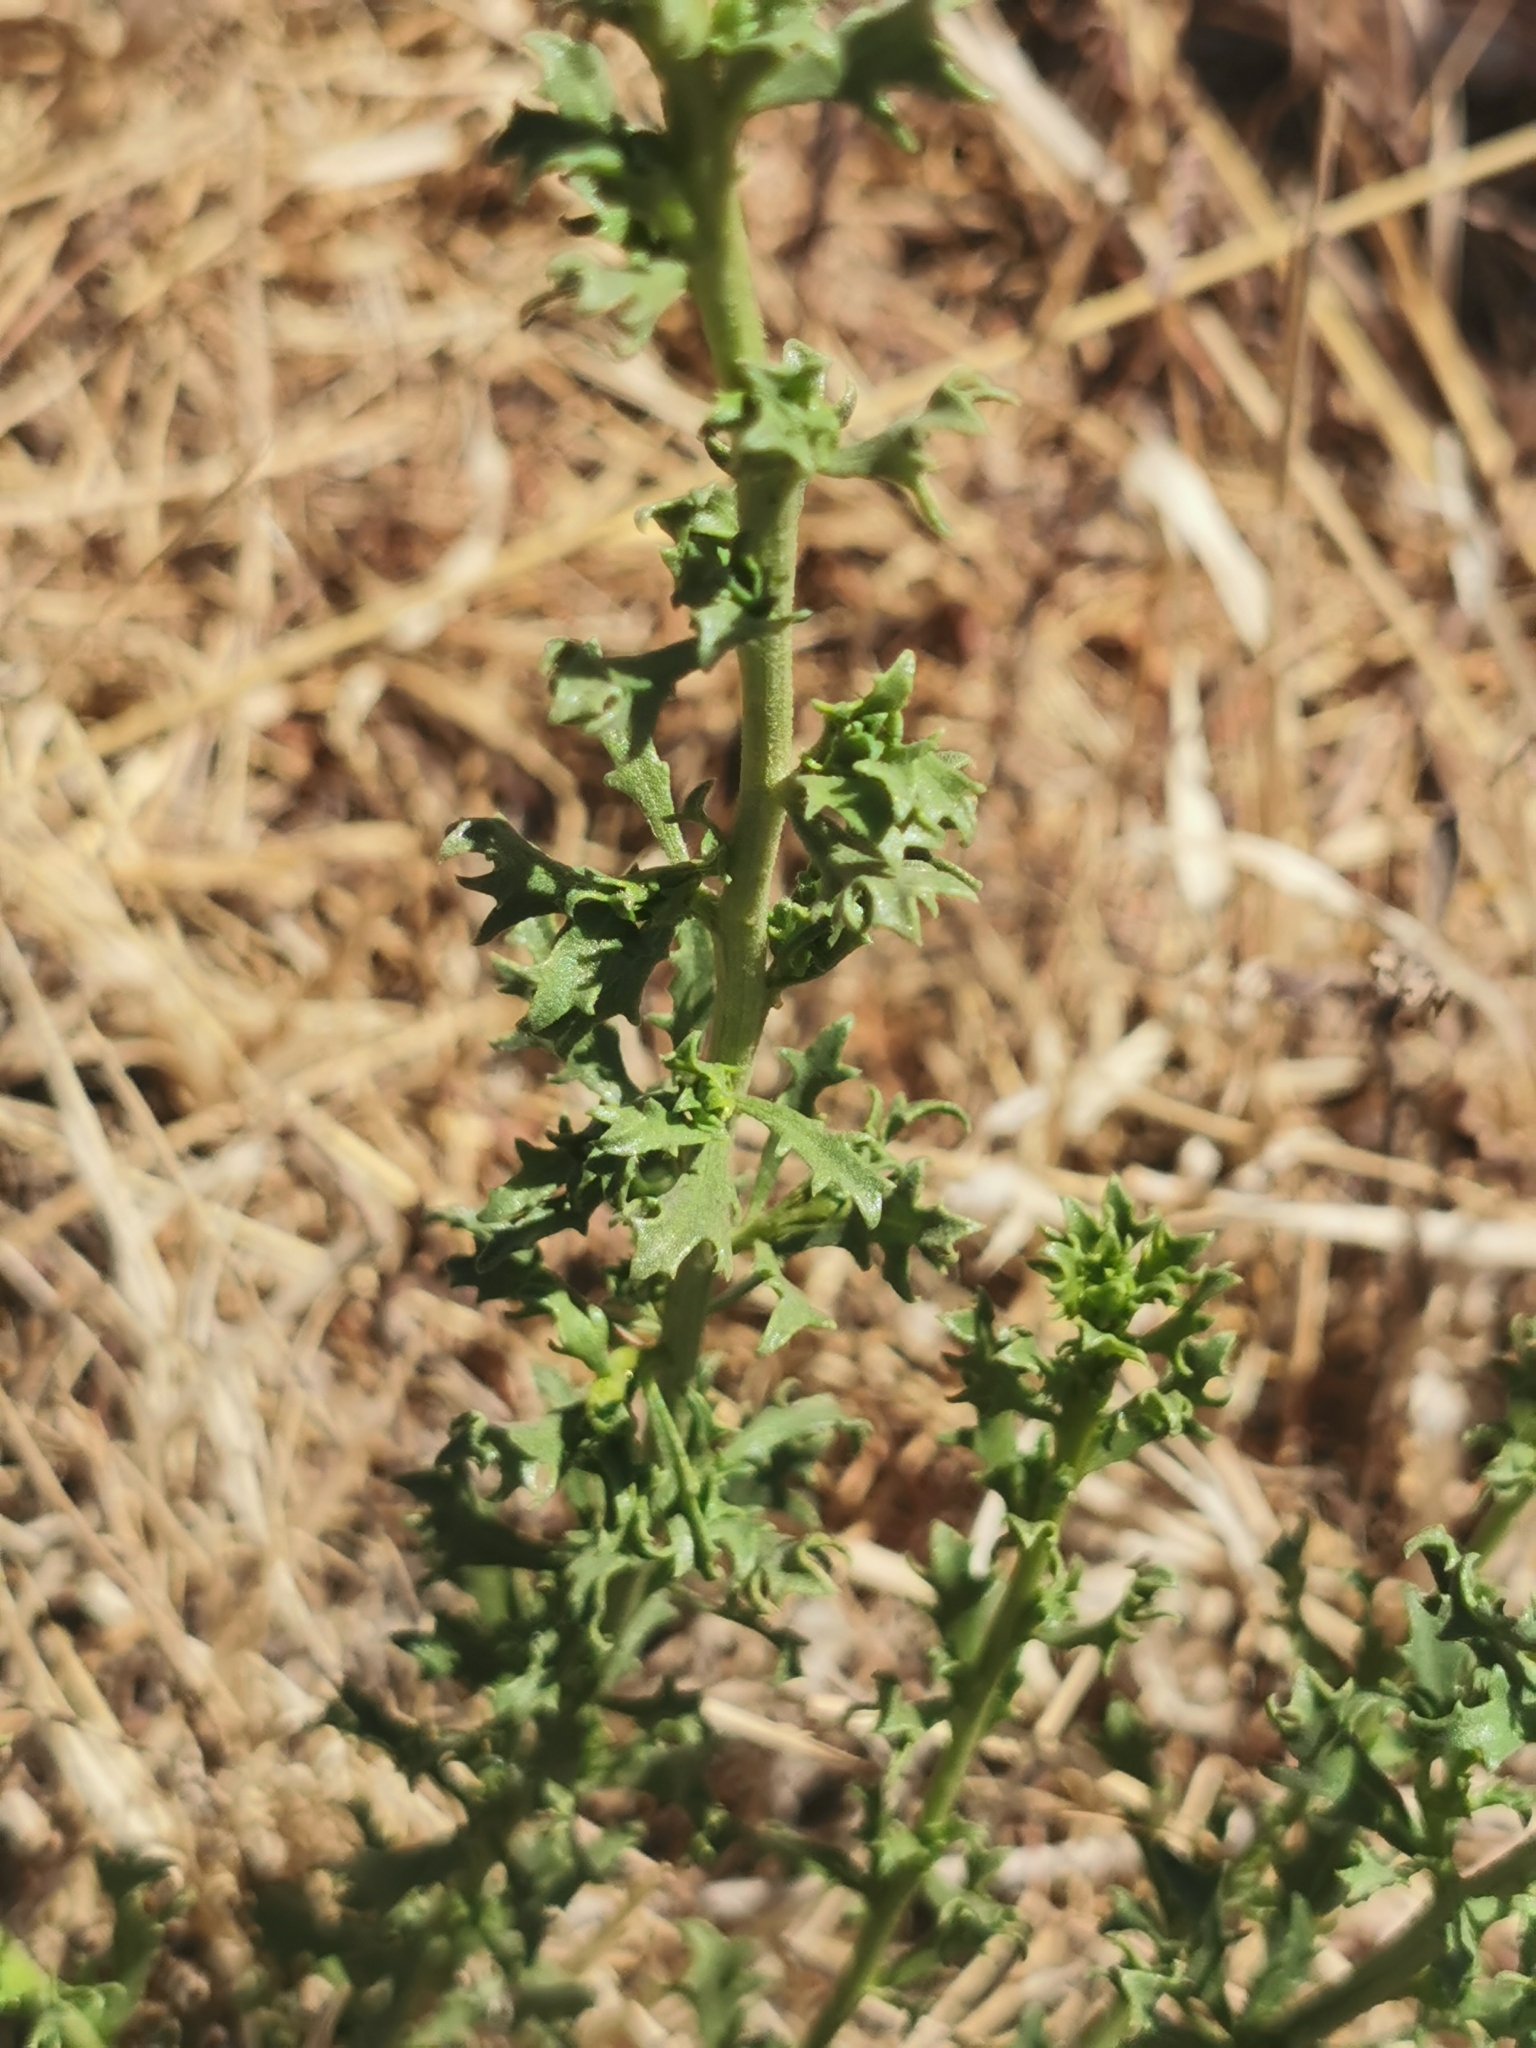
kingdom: Plantae
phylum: Tracheophyta
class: Magnoliopsida
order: Asterales
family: Asteraceae
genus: Baccharis
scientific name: Baccharis pteronioides
